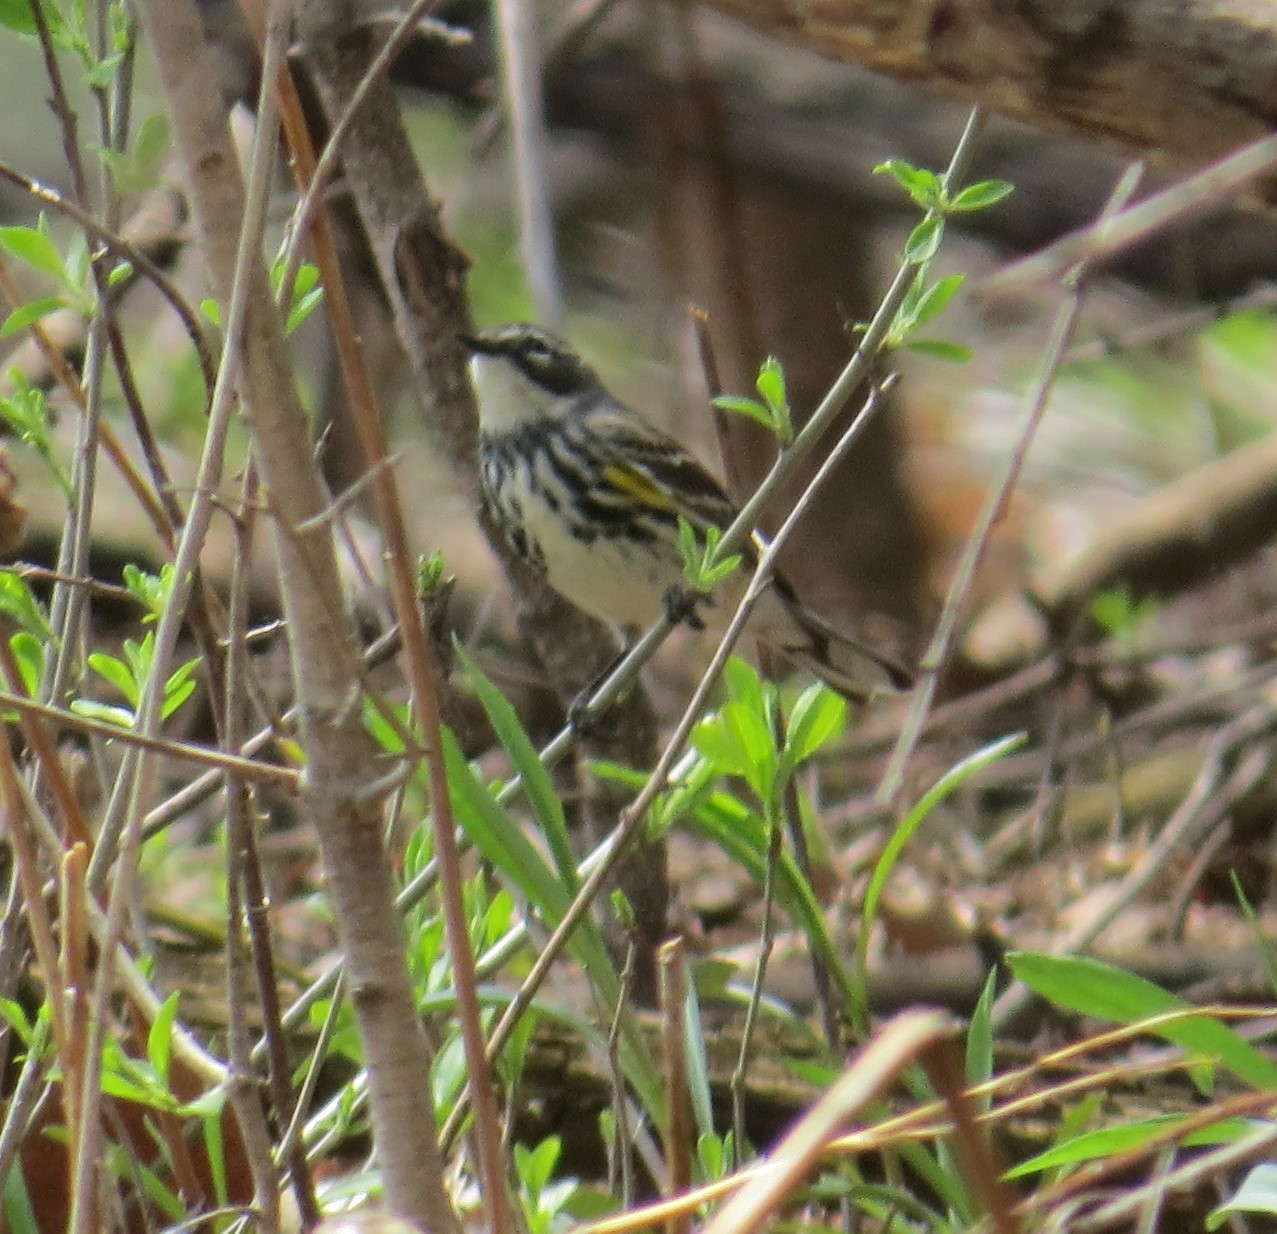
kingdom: Animalia
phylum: Chordata
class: Aves
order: Passeriformes
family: Parulidae
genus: Setophaga
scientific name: Setophaga coronata
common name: Myrtle warbler
